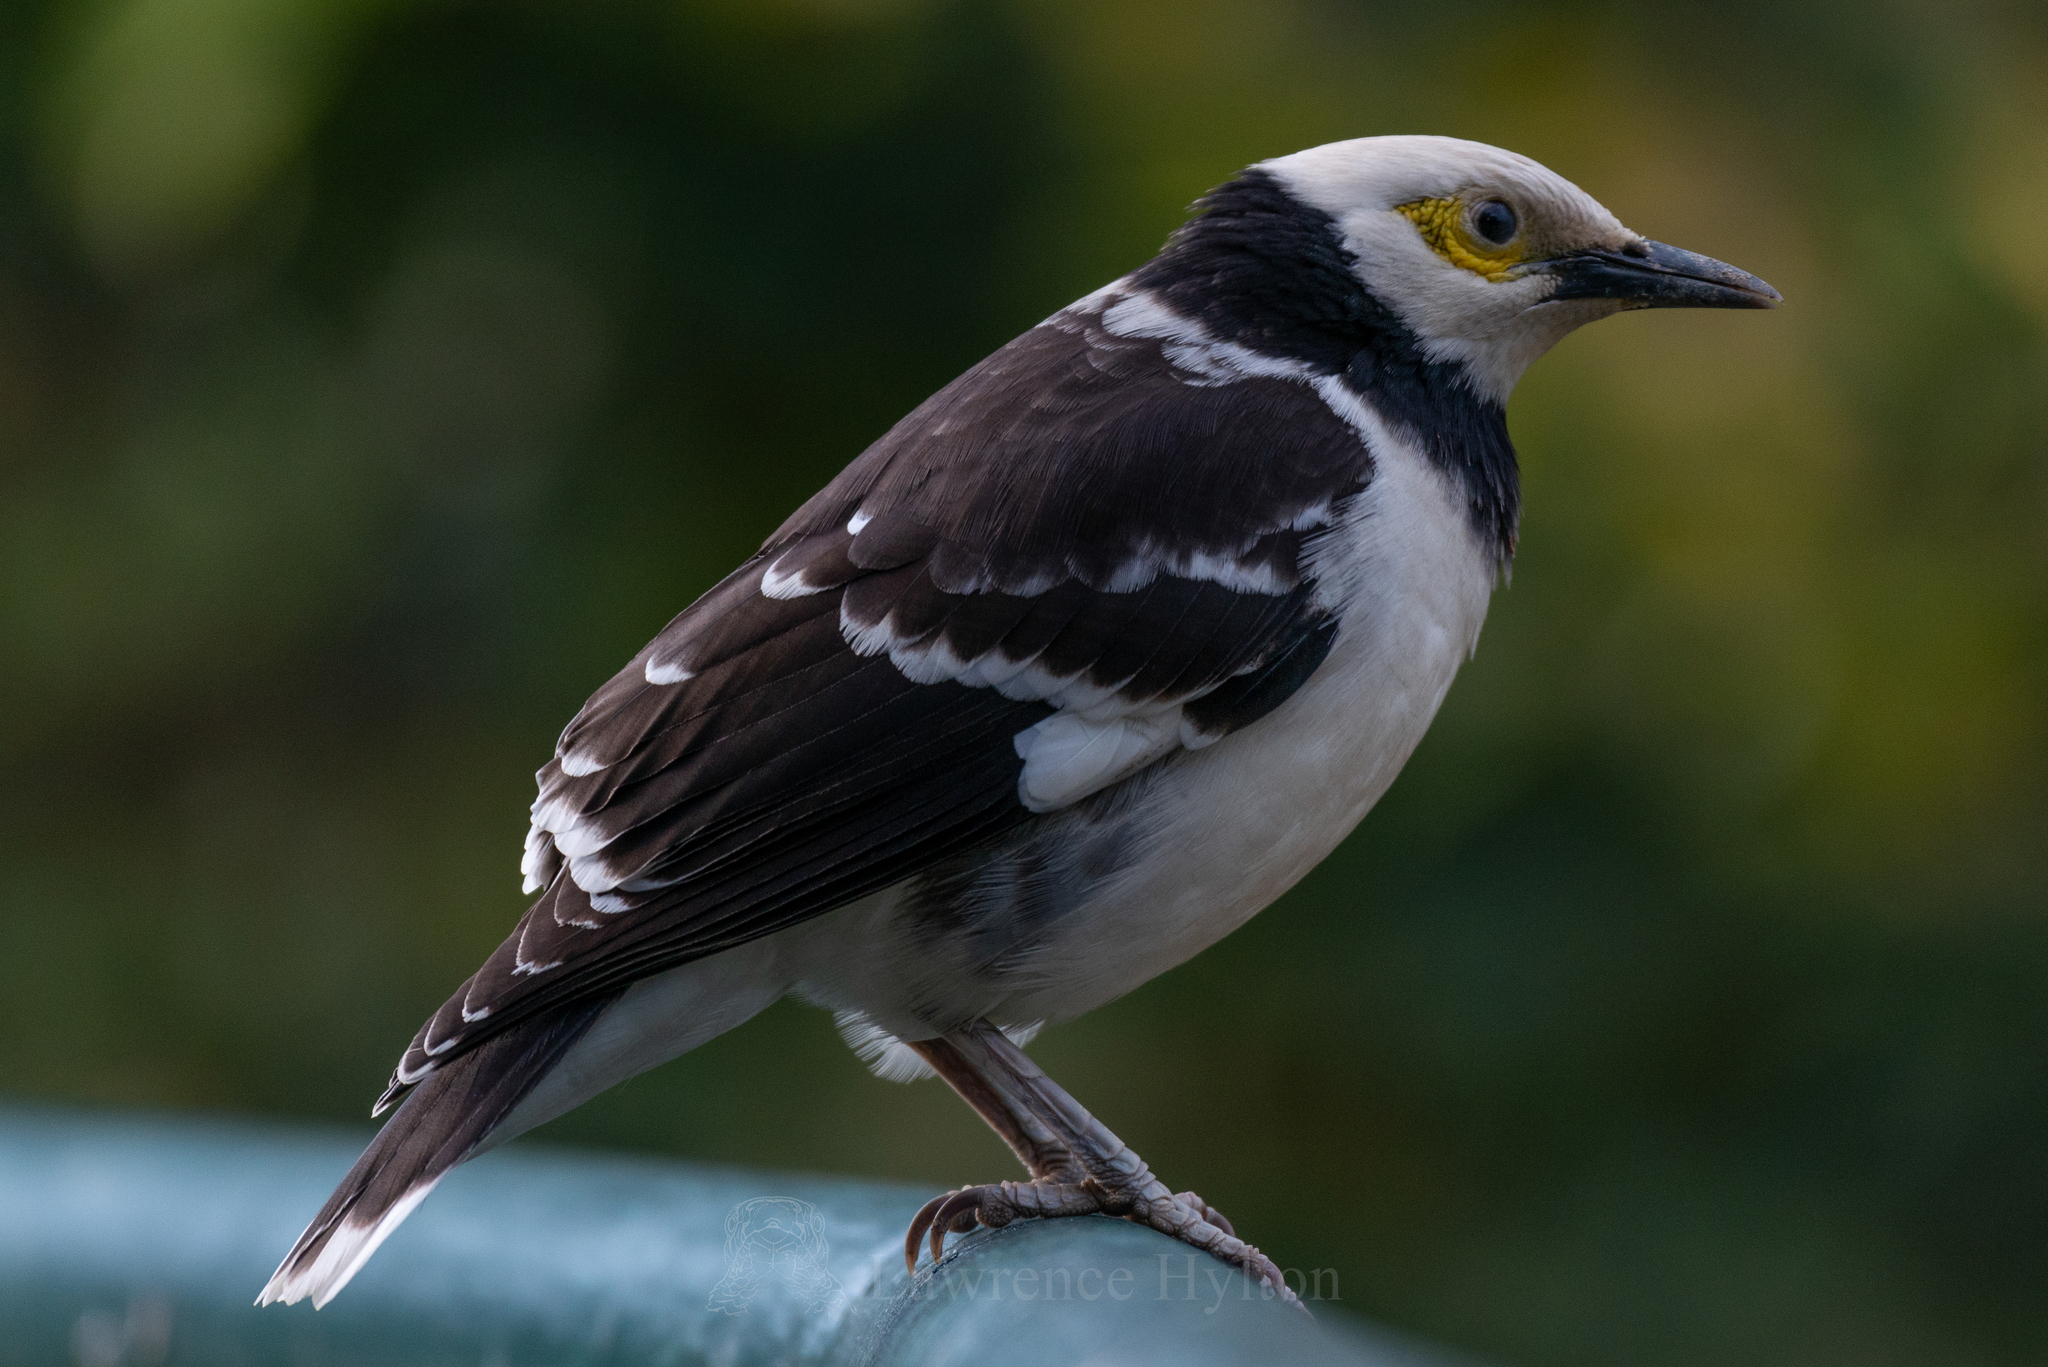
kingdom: Animalia
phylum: Chordata
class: Aves
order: Passeriformes
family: Sturnidae
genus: Gracupica
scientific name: Gracupica nigricollis
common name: Black-collared starling
